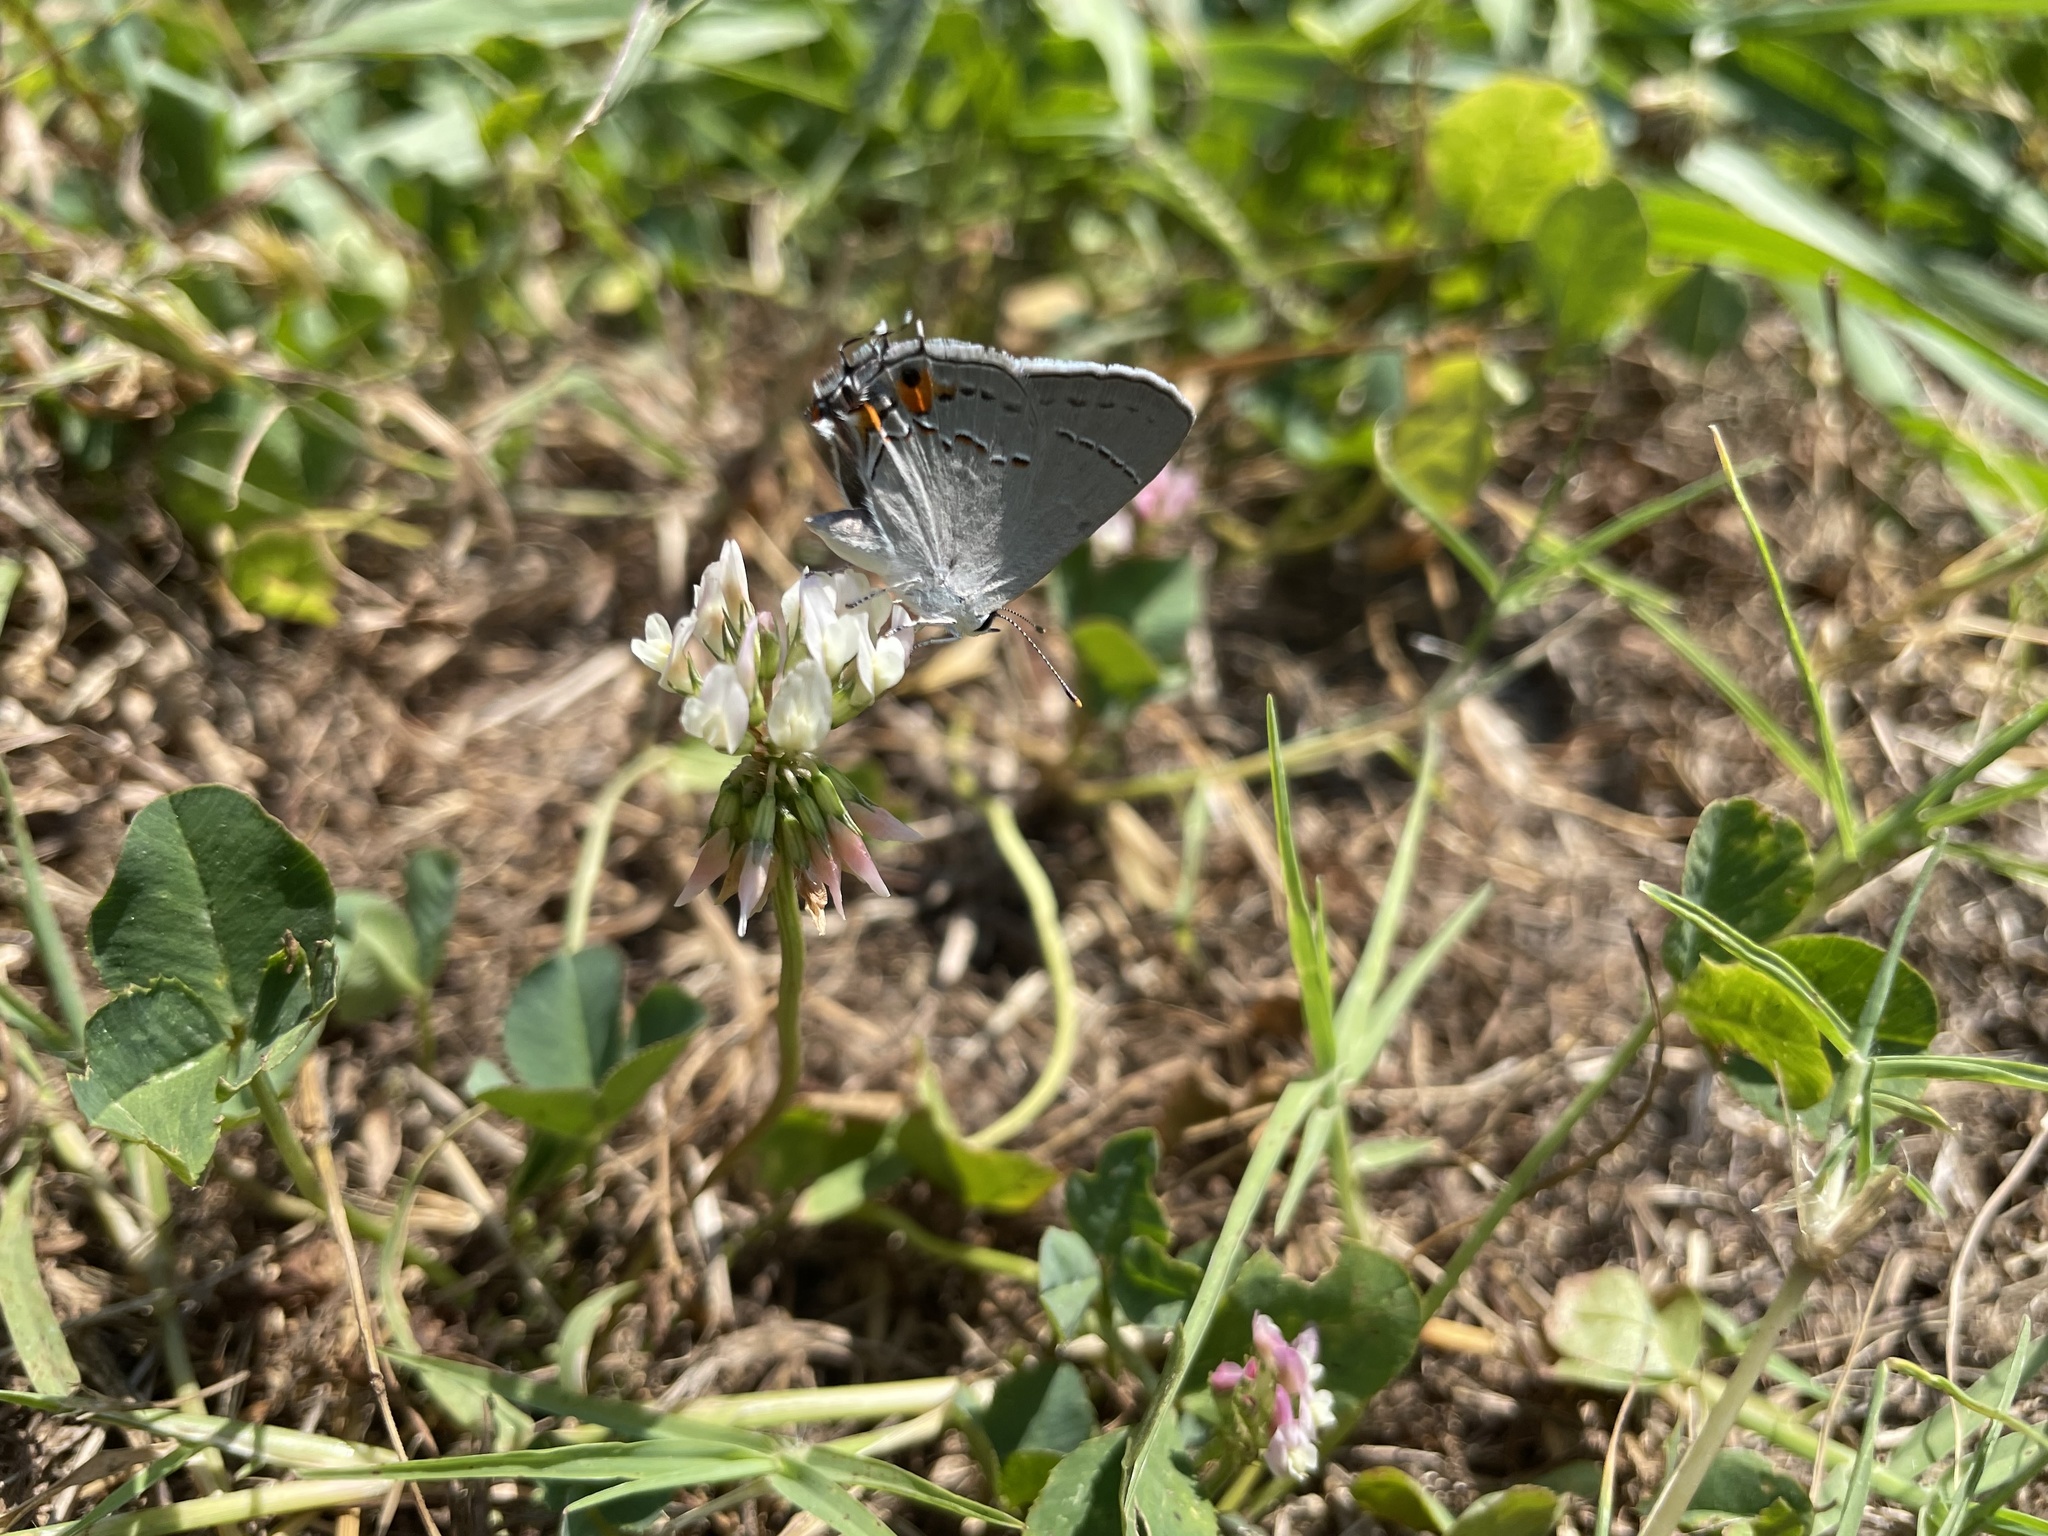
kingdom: Animalia
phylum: Arthropoda
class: Insecta
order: Lepidoptera
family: Lycaenidae
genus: Strymon
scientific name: Strymon melinus
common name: Gray hairstreak
